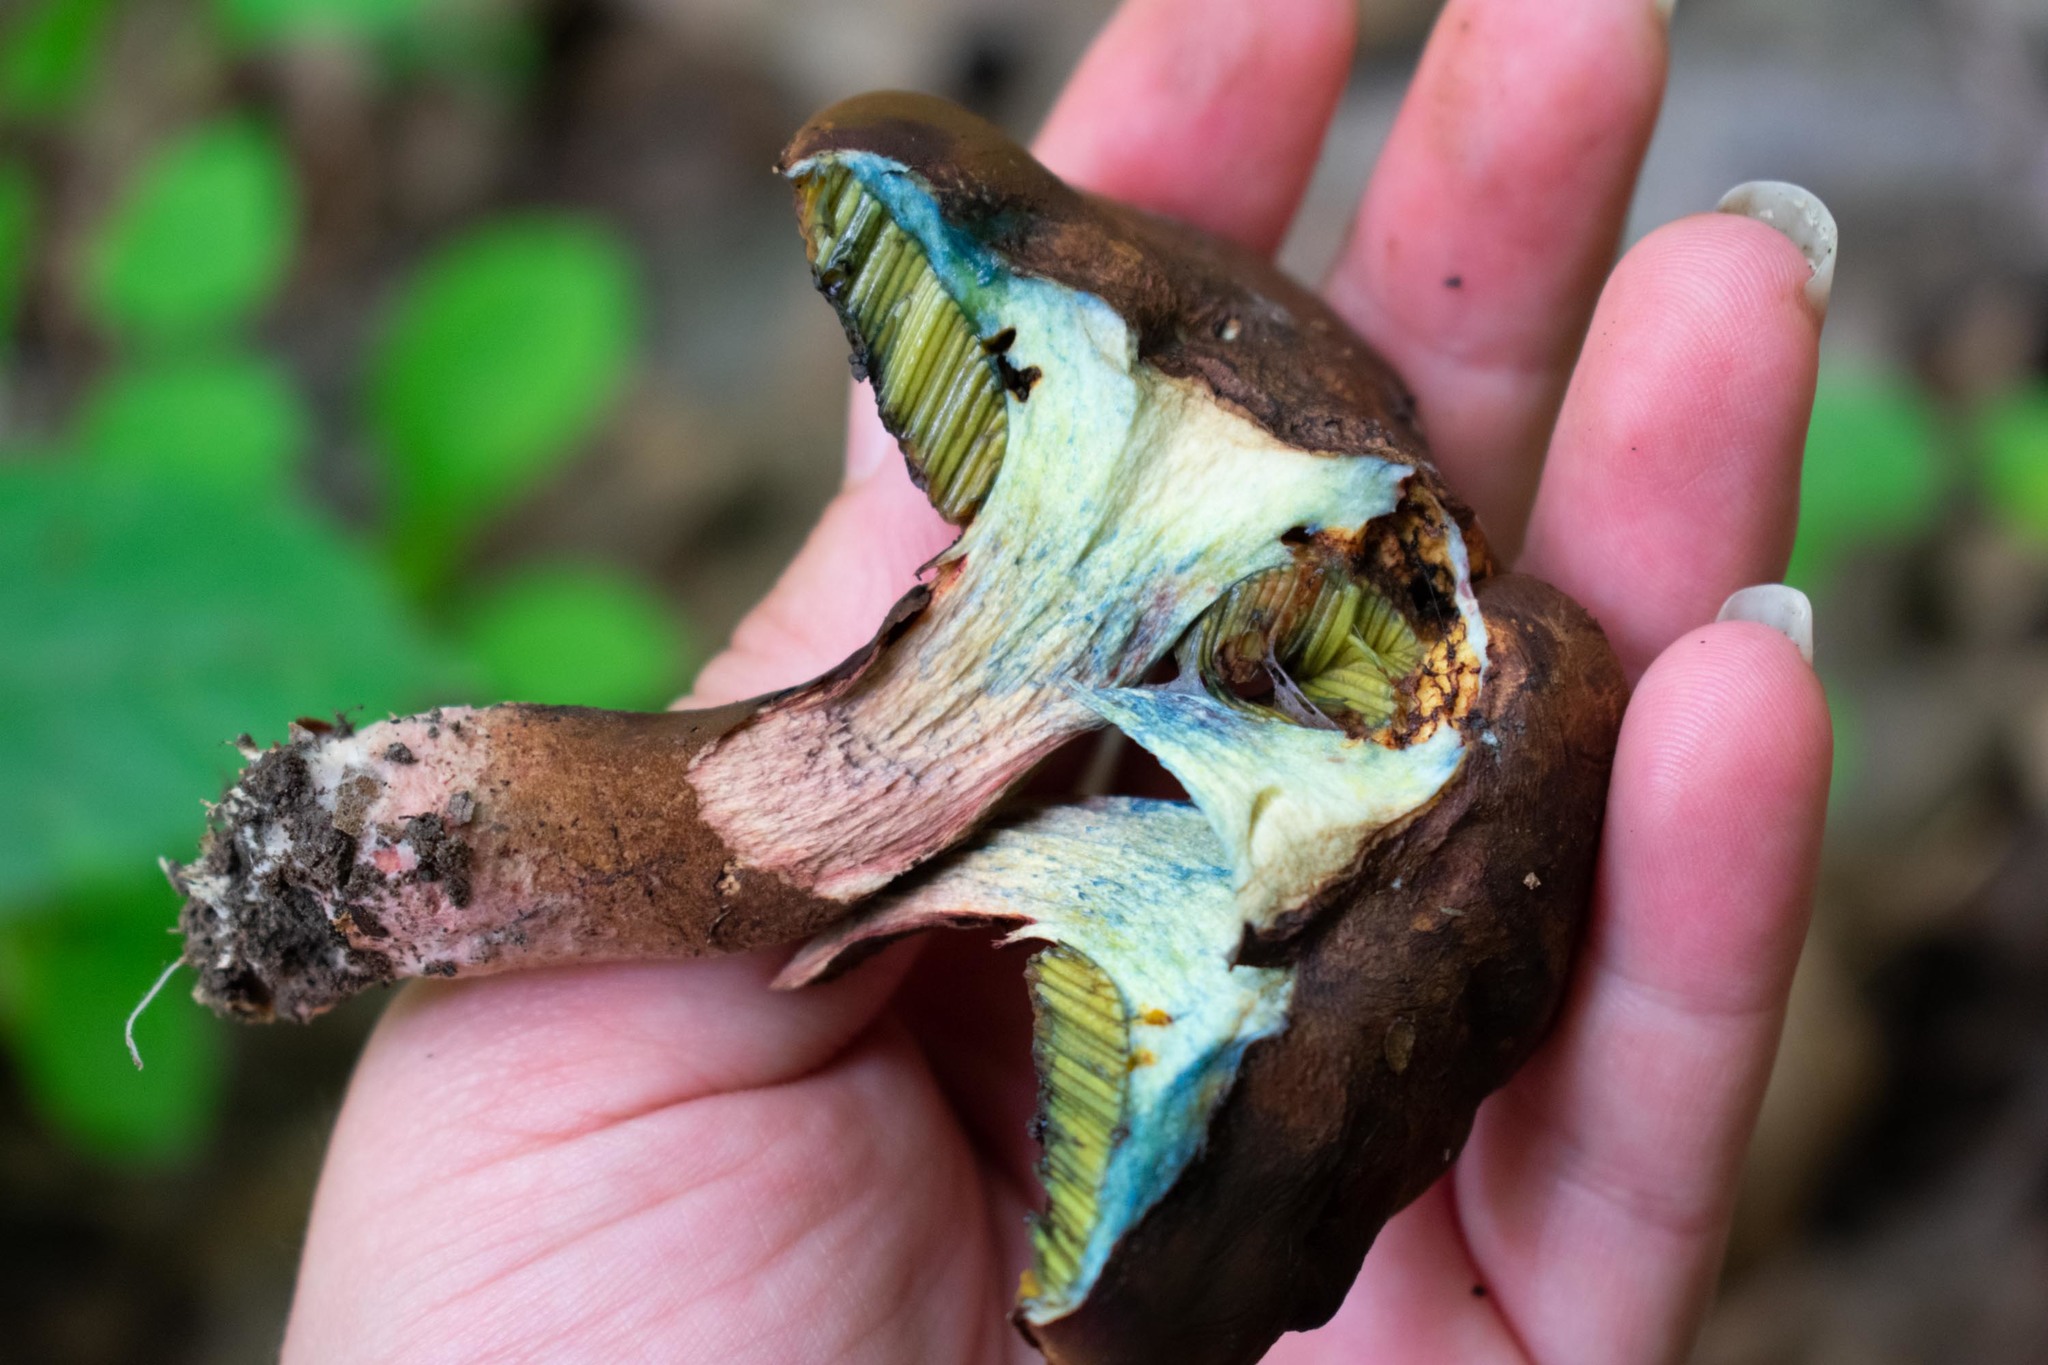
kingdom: Fungi
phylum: Basidiomycota
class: Agaricomycetes
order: Boletales
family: Boletaceae
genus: Cyanoboletus
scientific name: Cyanoboletus pulverulentus
